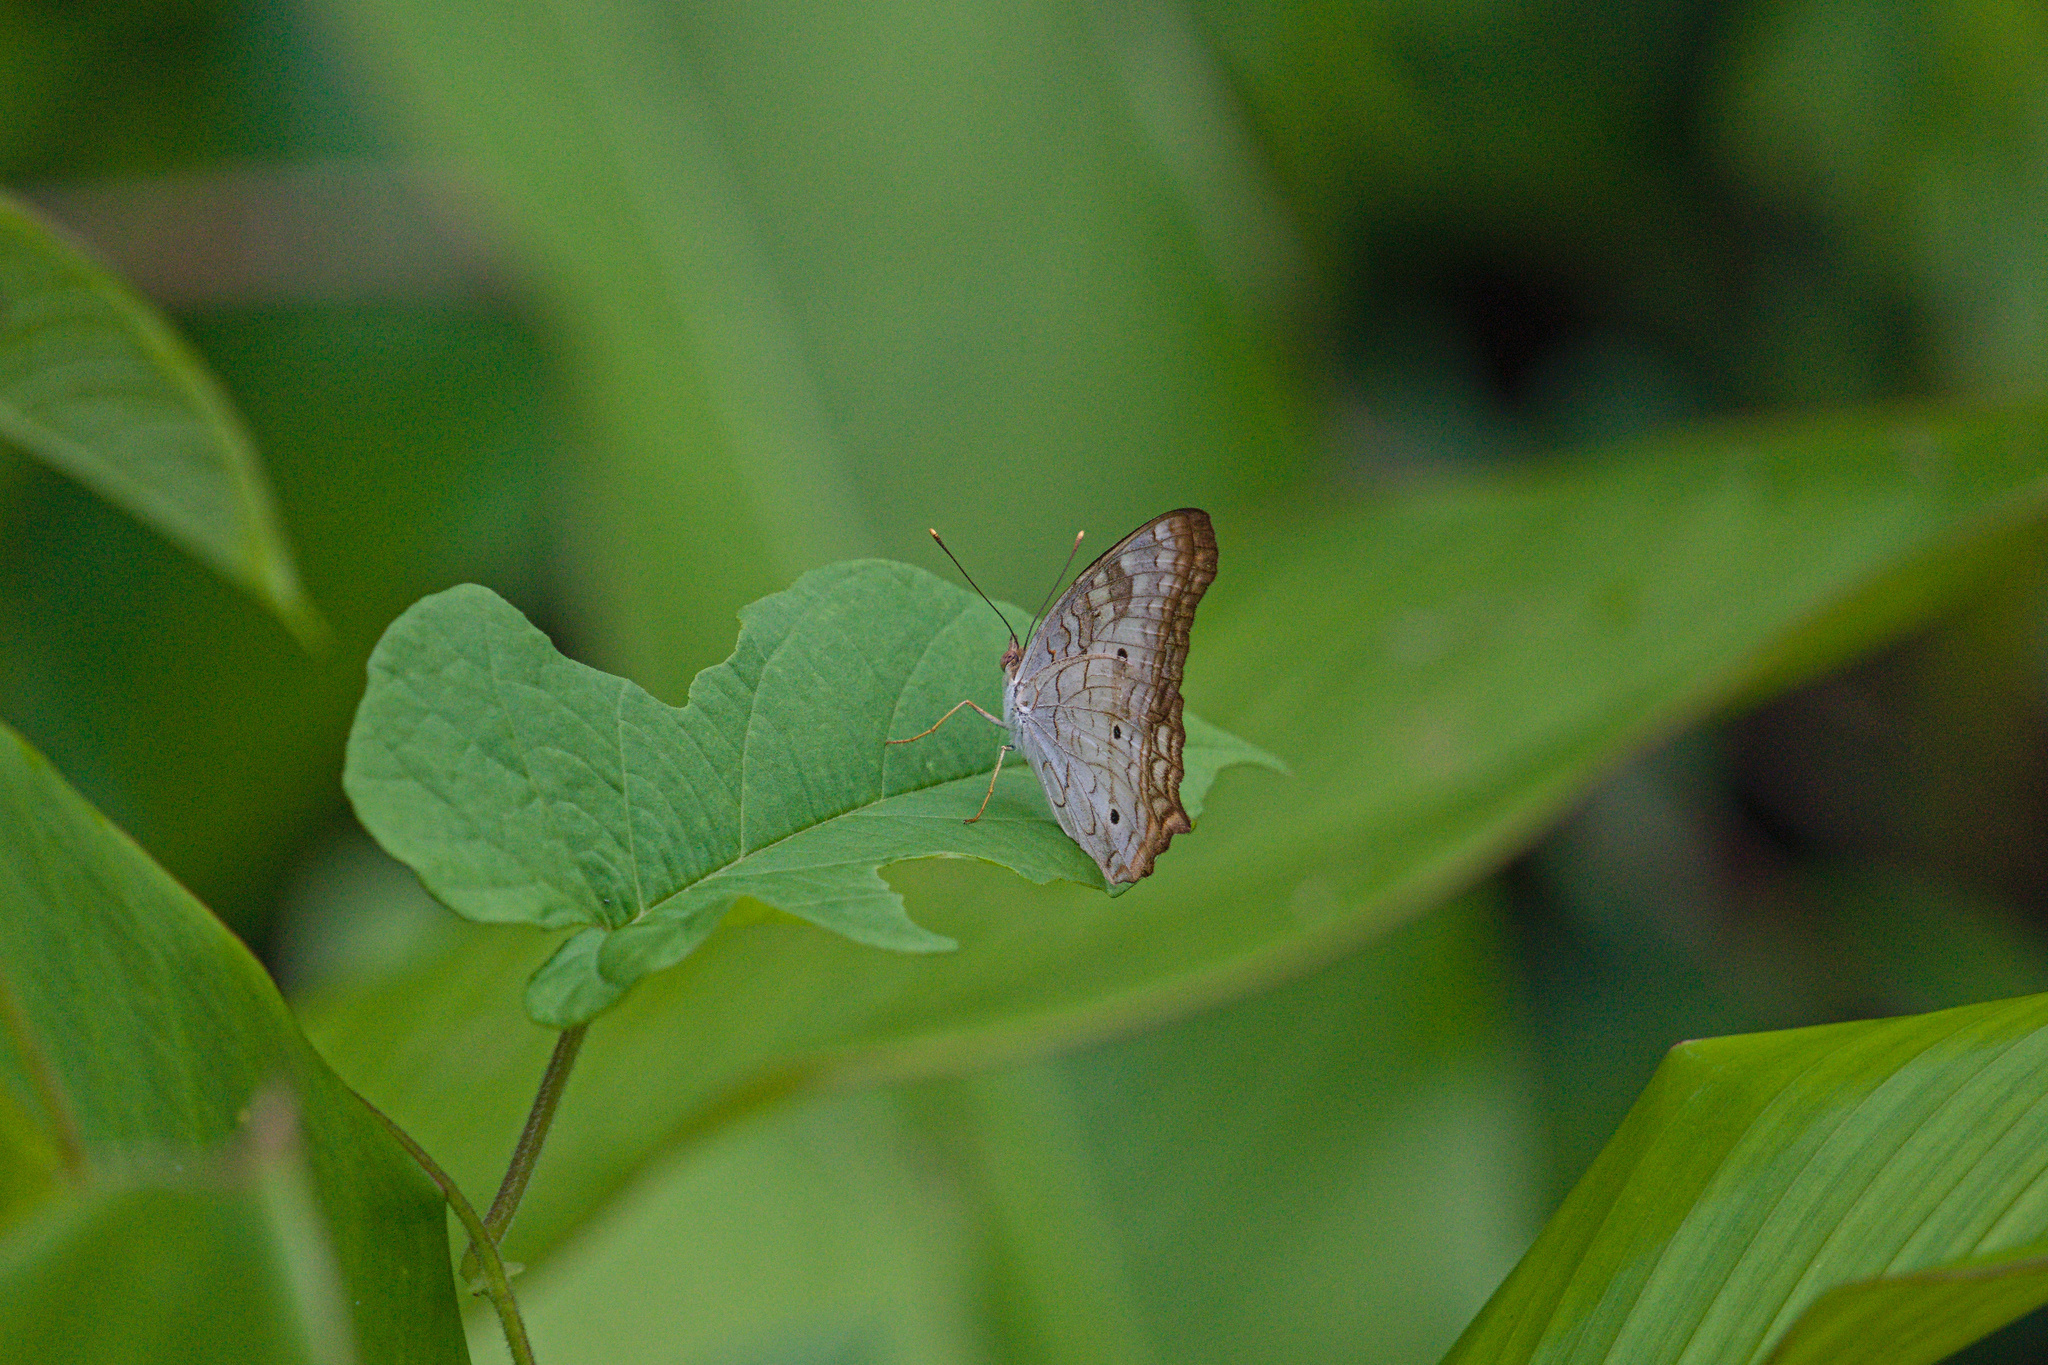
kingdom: Animalia
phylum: Arthropoda
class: Insecta
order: Lepidoptera
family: Nymphalidae
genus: Anartia
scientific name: Anartia jatrophae
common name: White peacock
